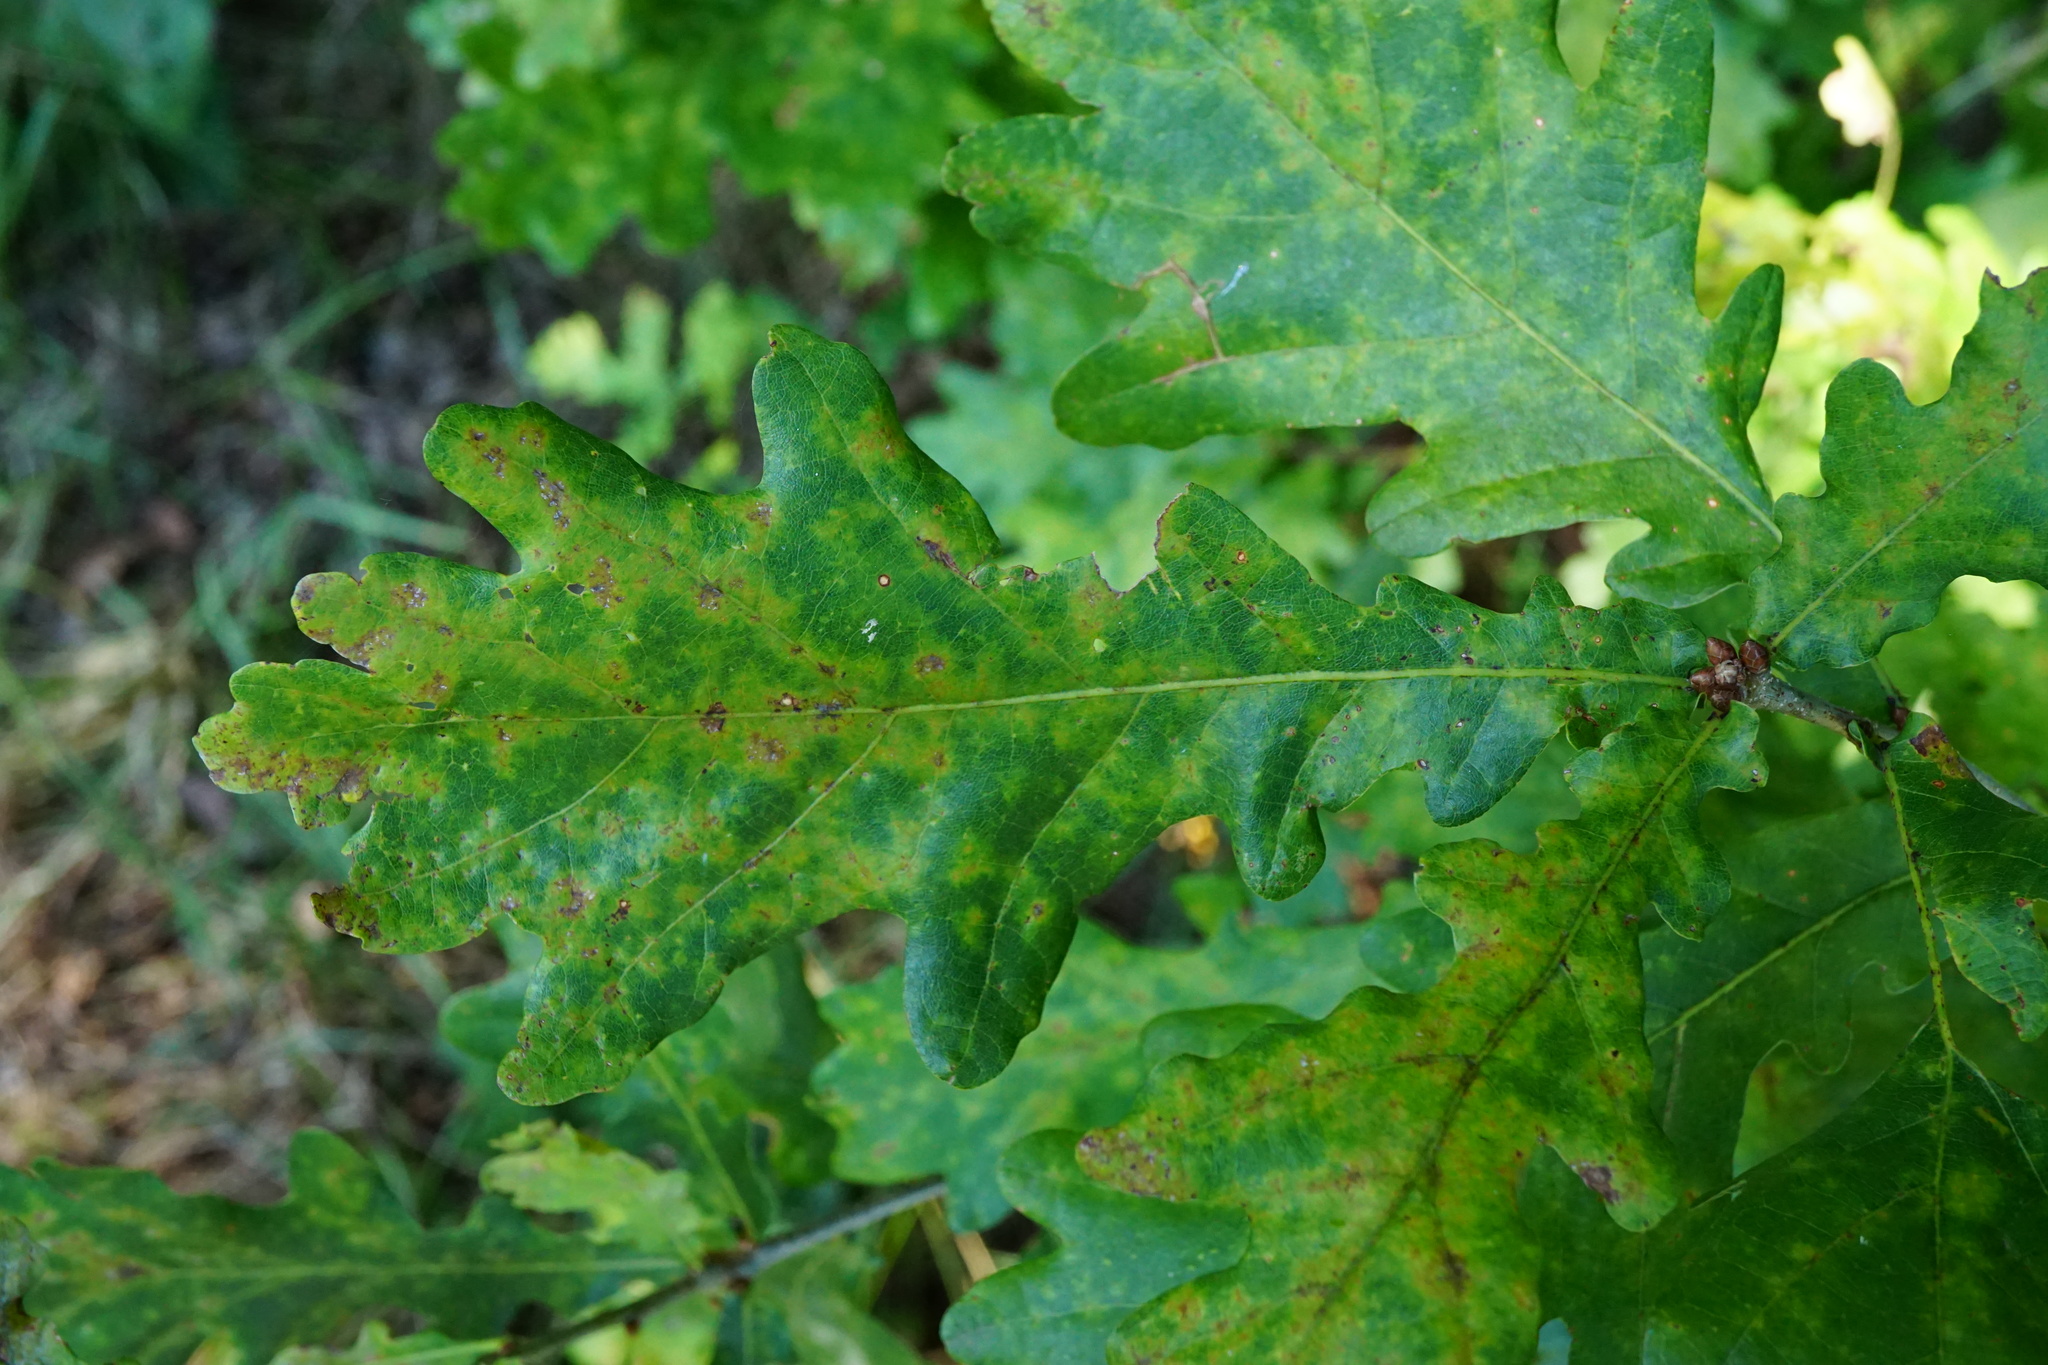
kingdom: Plantae
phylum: Tracheophyta
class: Magnoliopsida
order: Fagales
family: Fagaceae
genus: Quercus
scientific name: Quercus robur
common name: Pedunculate oak
